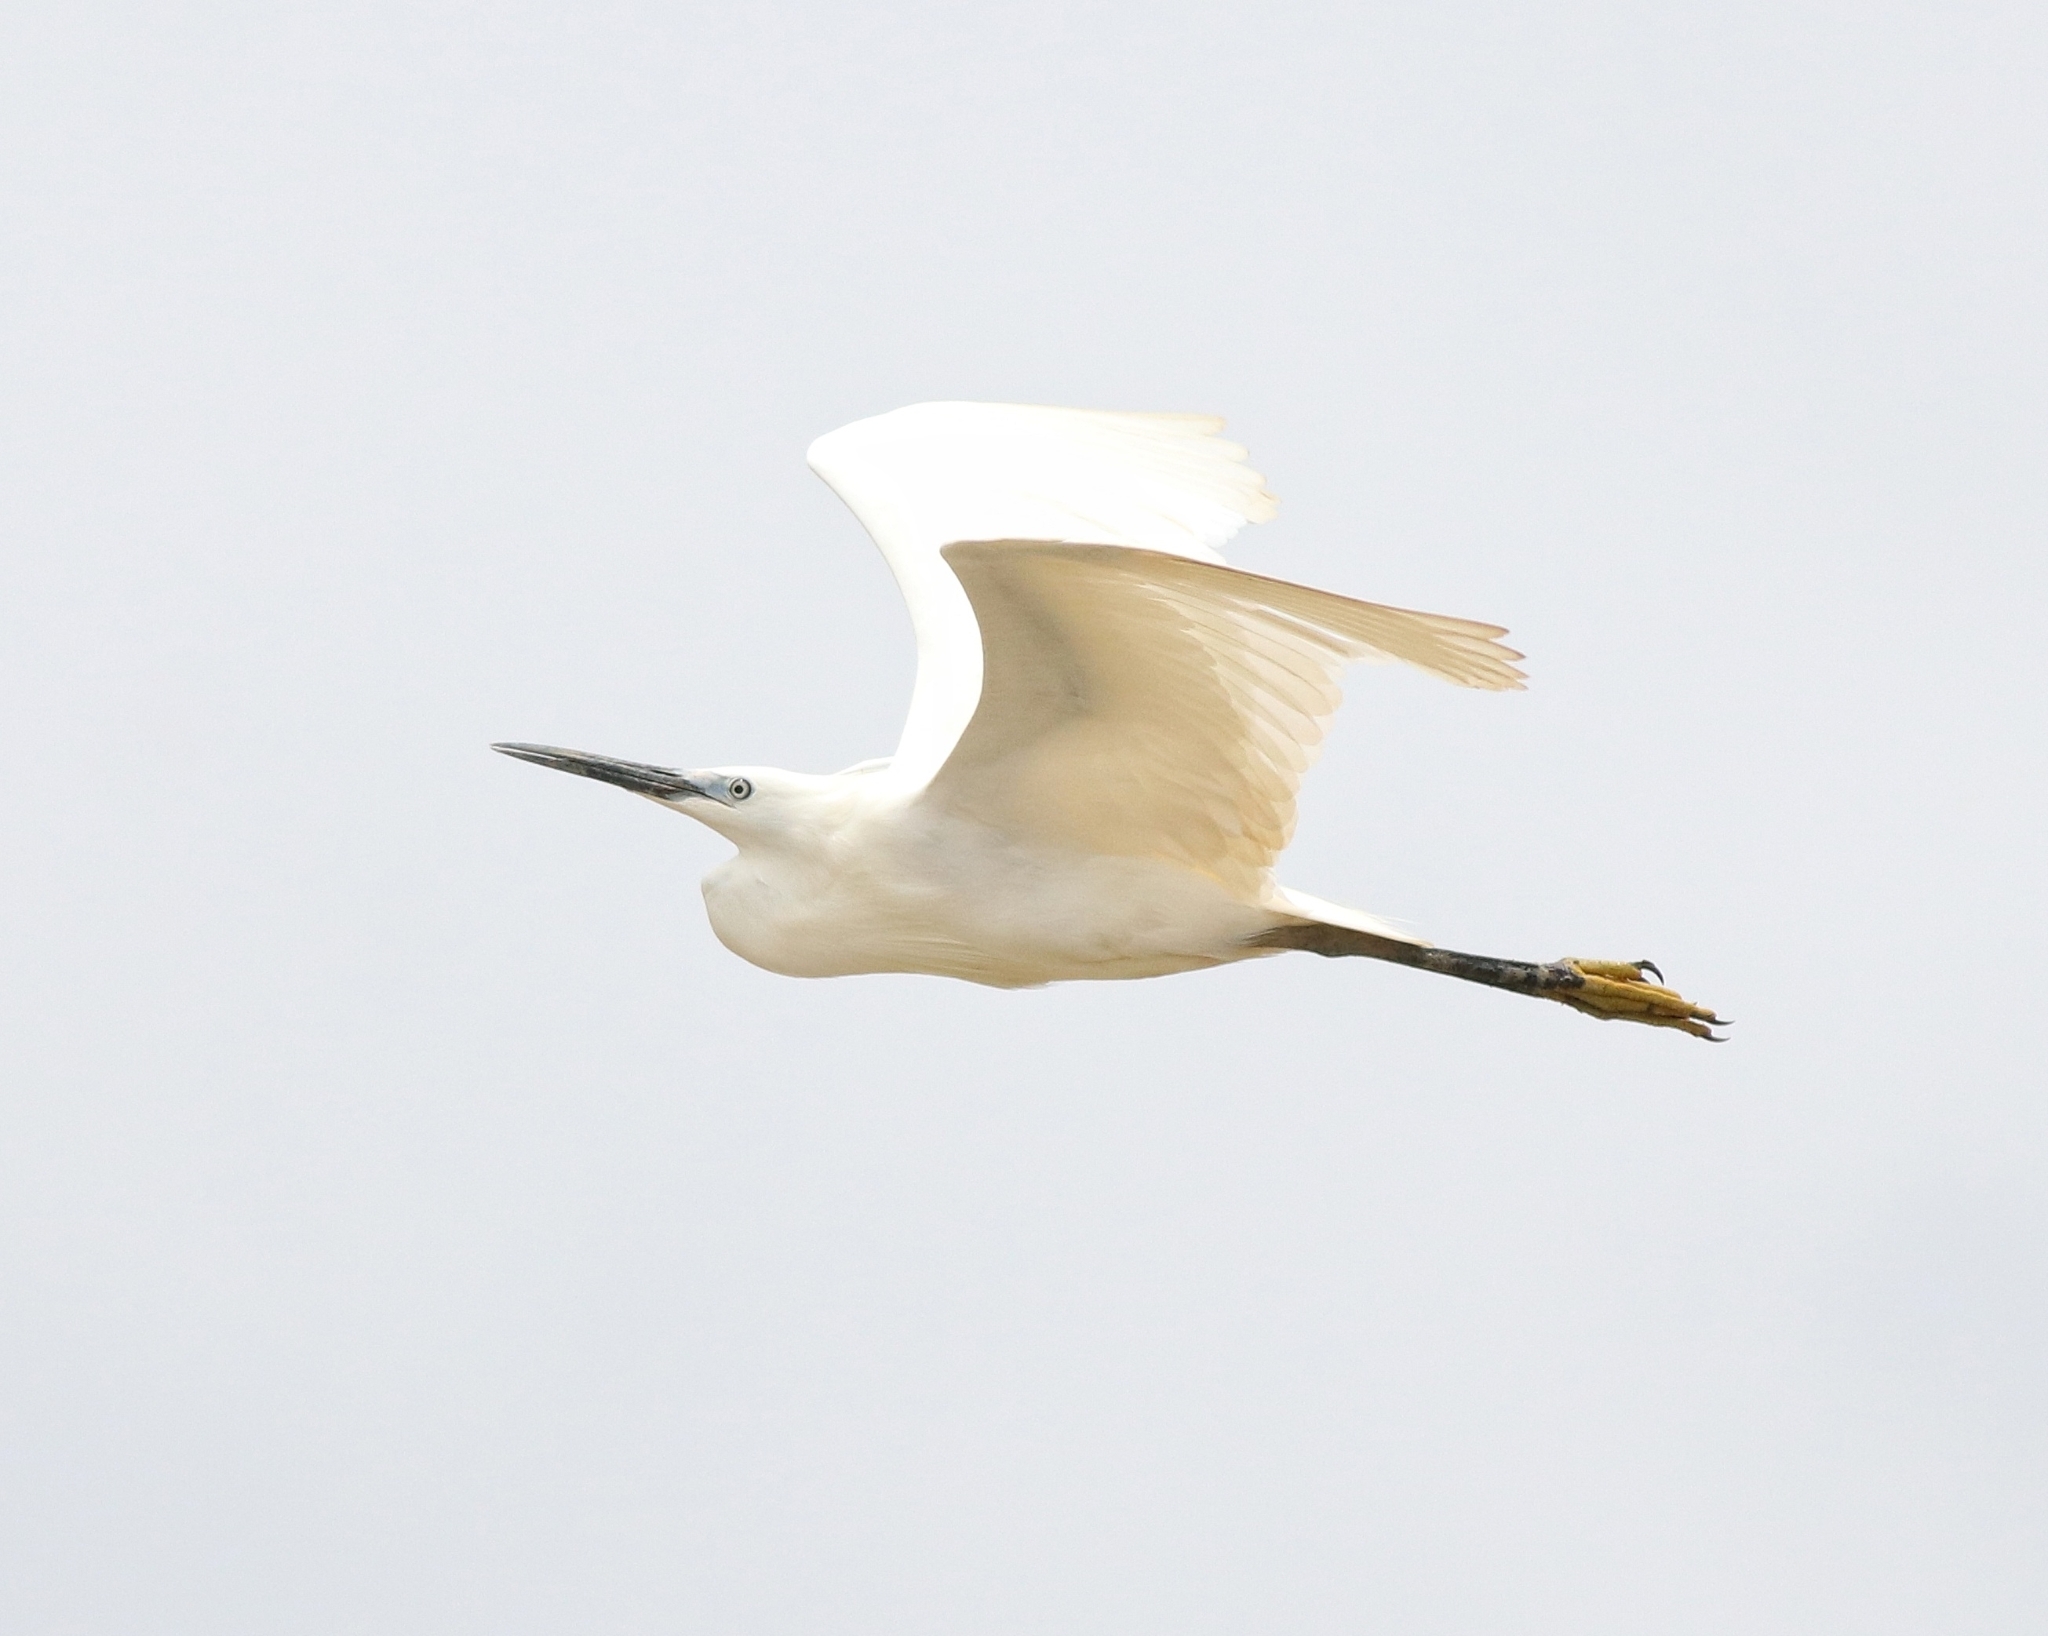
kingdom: Animalia
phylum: Chordata
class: Aves
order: Pelecaniformes
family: Ardeidae
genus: Egretta
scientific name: Egretta garzetta
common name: Little egret
